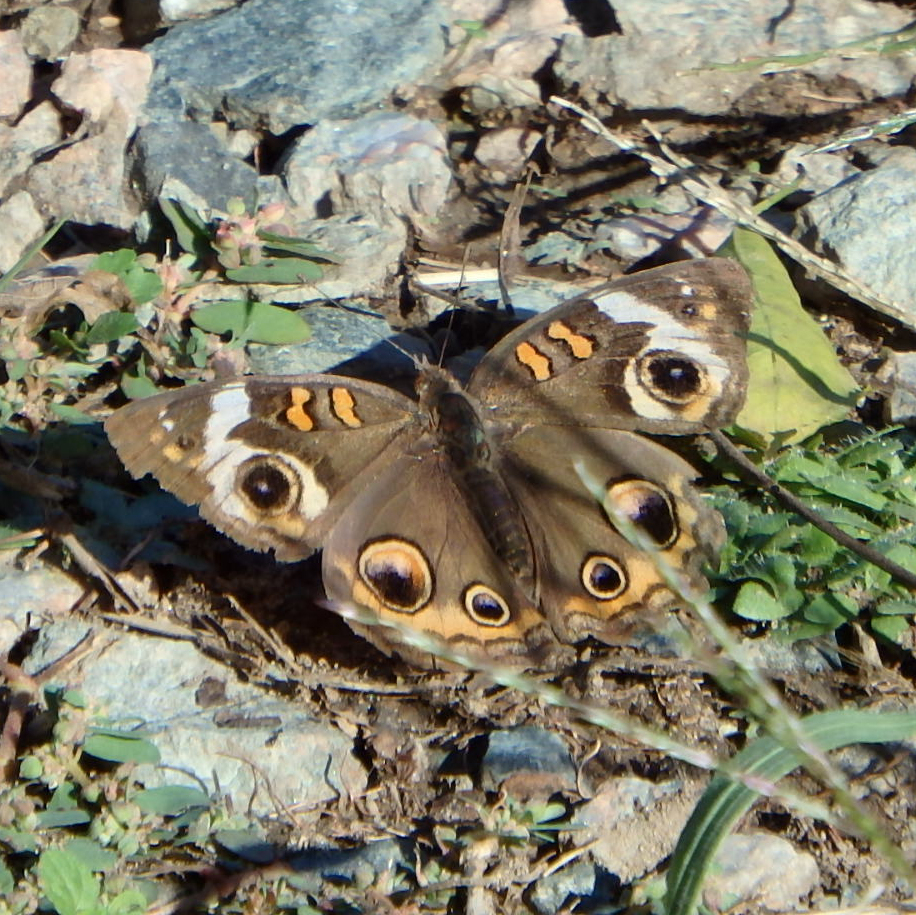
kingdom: Animalia
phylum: Arthropoda
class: Insecta
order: Lepidoptera
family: Nymphalidae
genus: Junonia
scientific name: Junonia coenia
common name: Common buckeye
